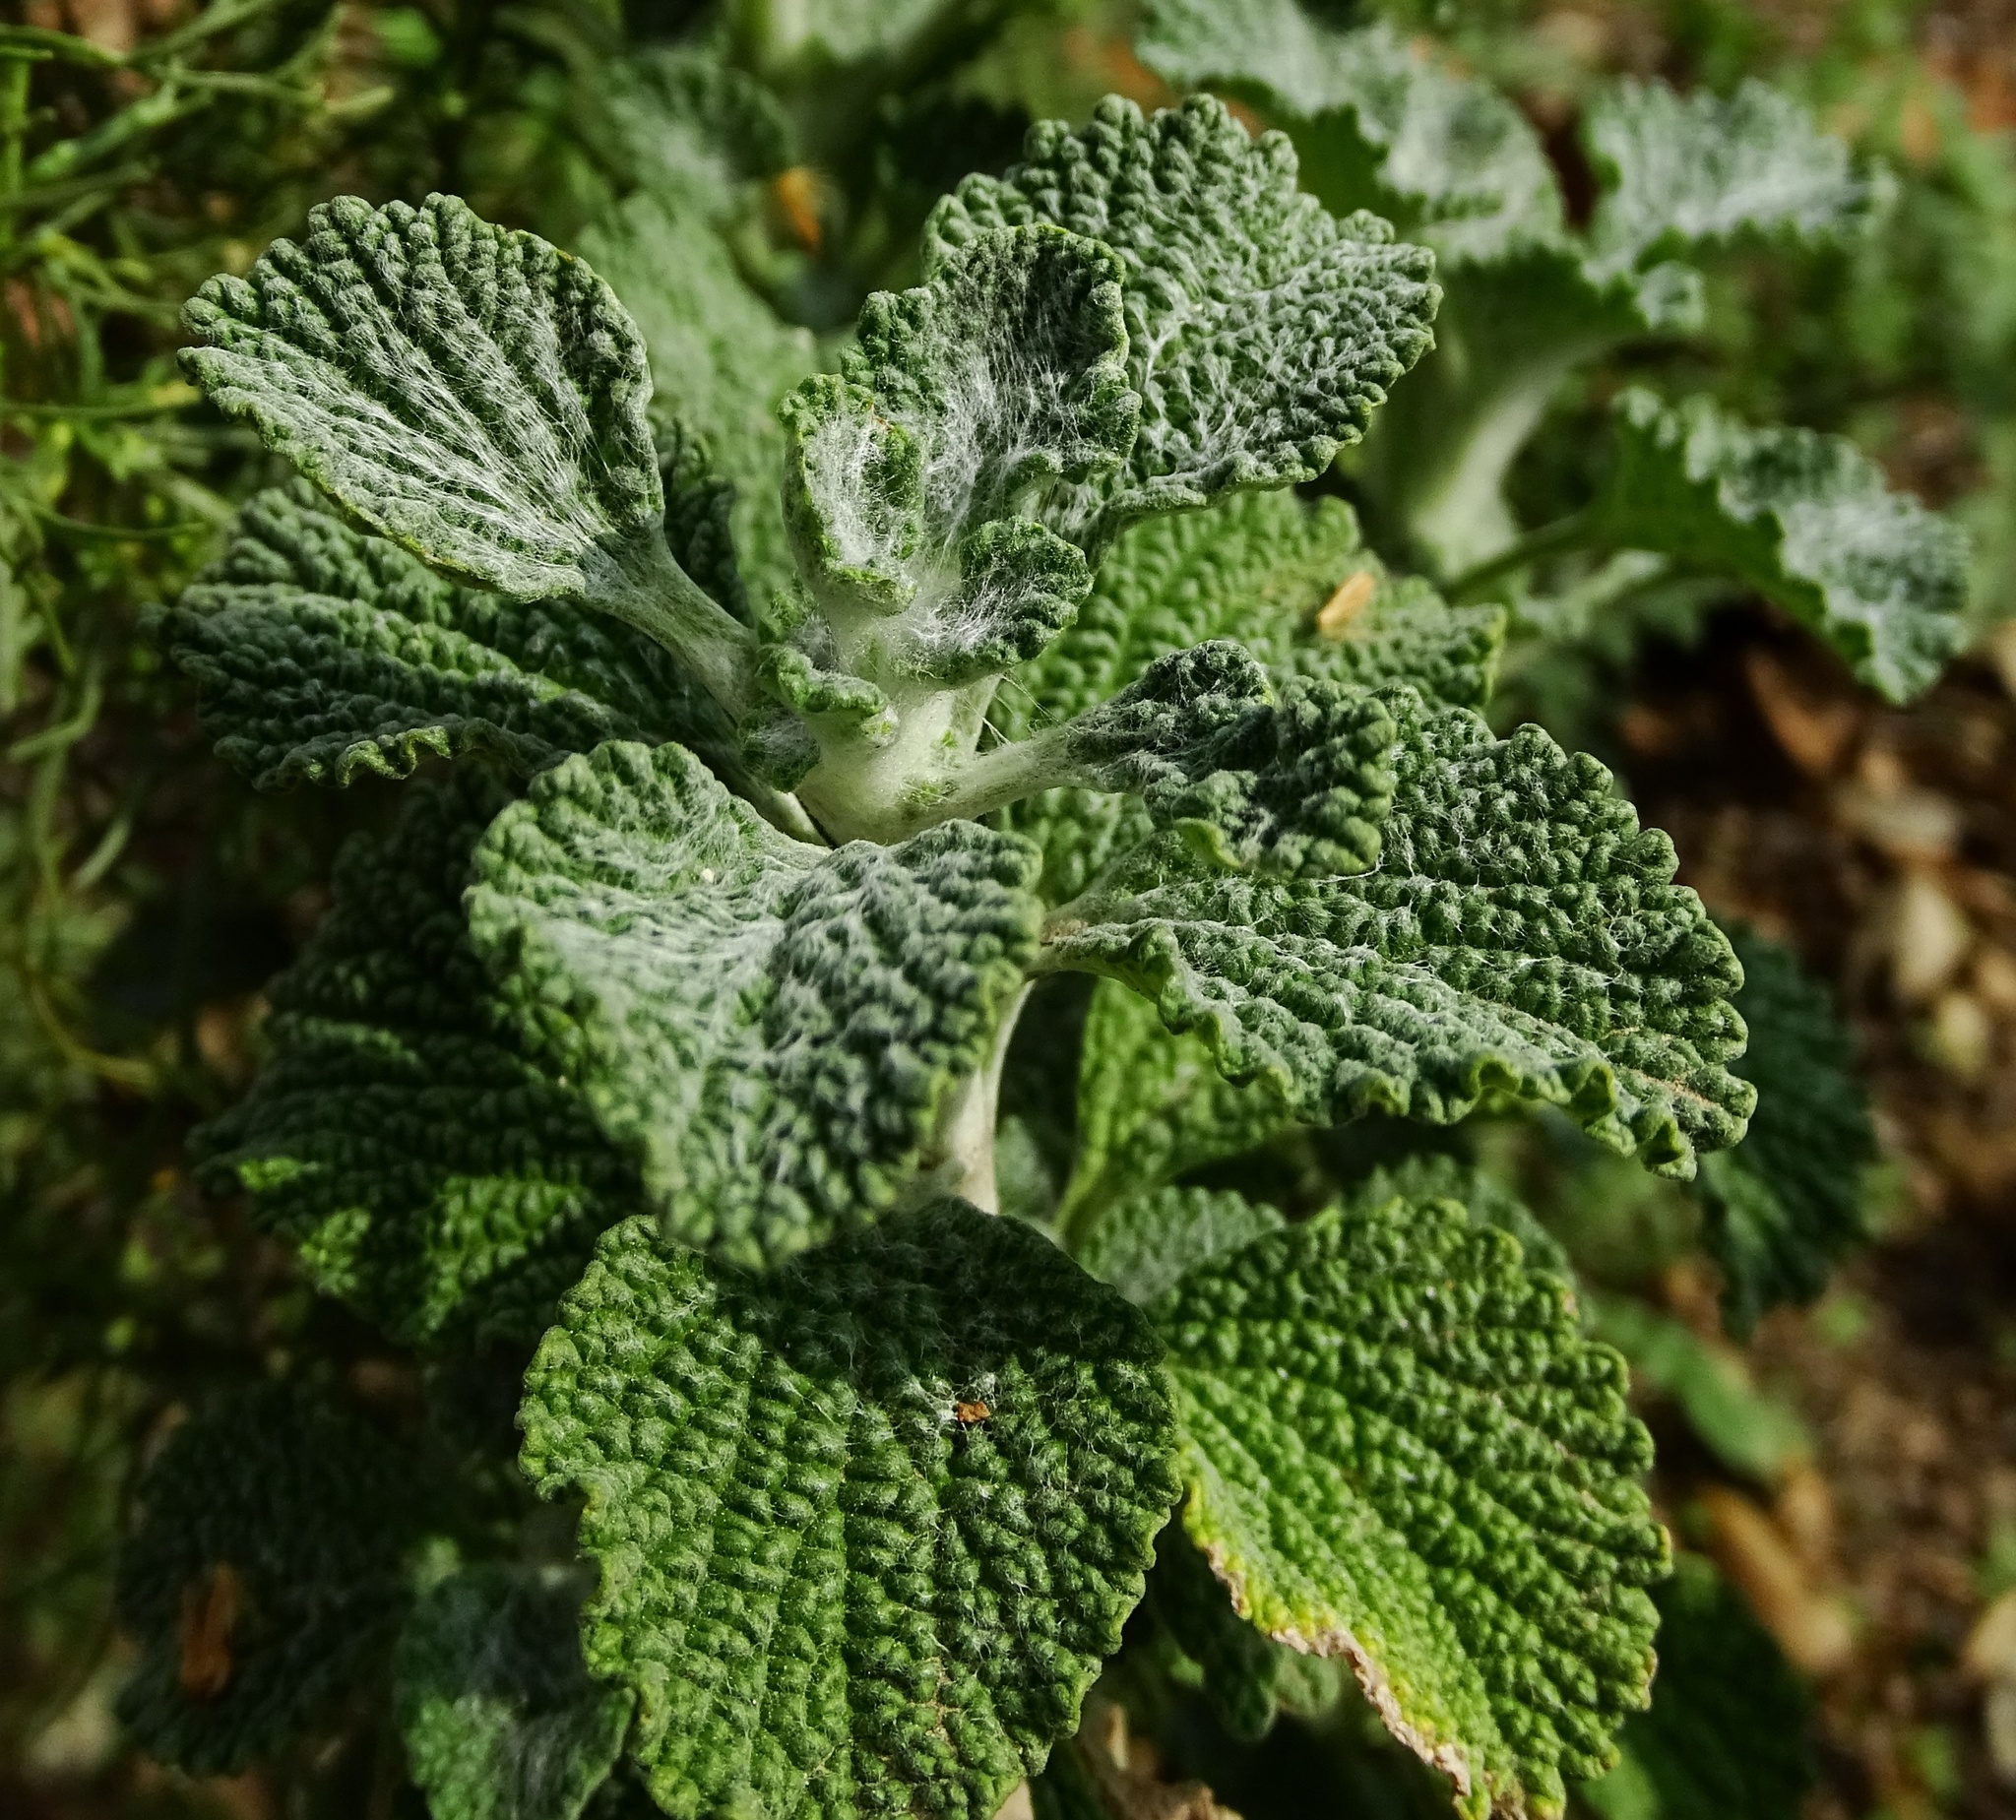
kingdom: Plantae
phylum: Tracheophyta
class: Magnoliopsida
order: Lamiales
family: Lamiaceae
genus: Marrubium
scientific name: Marrubium vulgare
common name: Horehound
